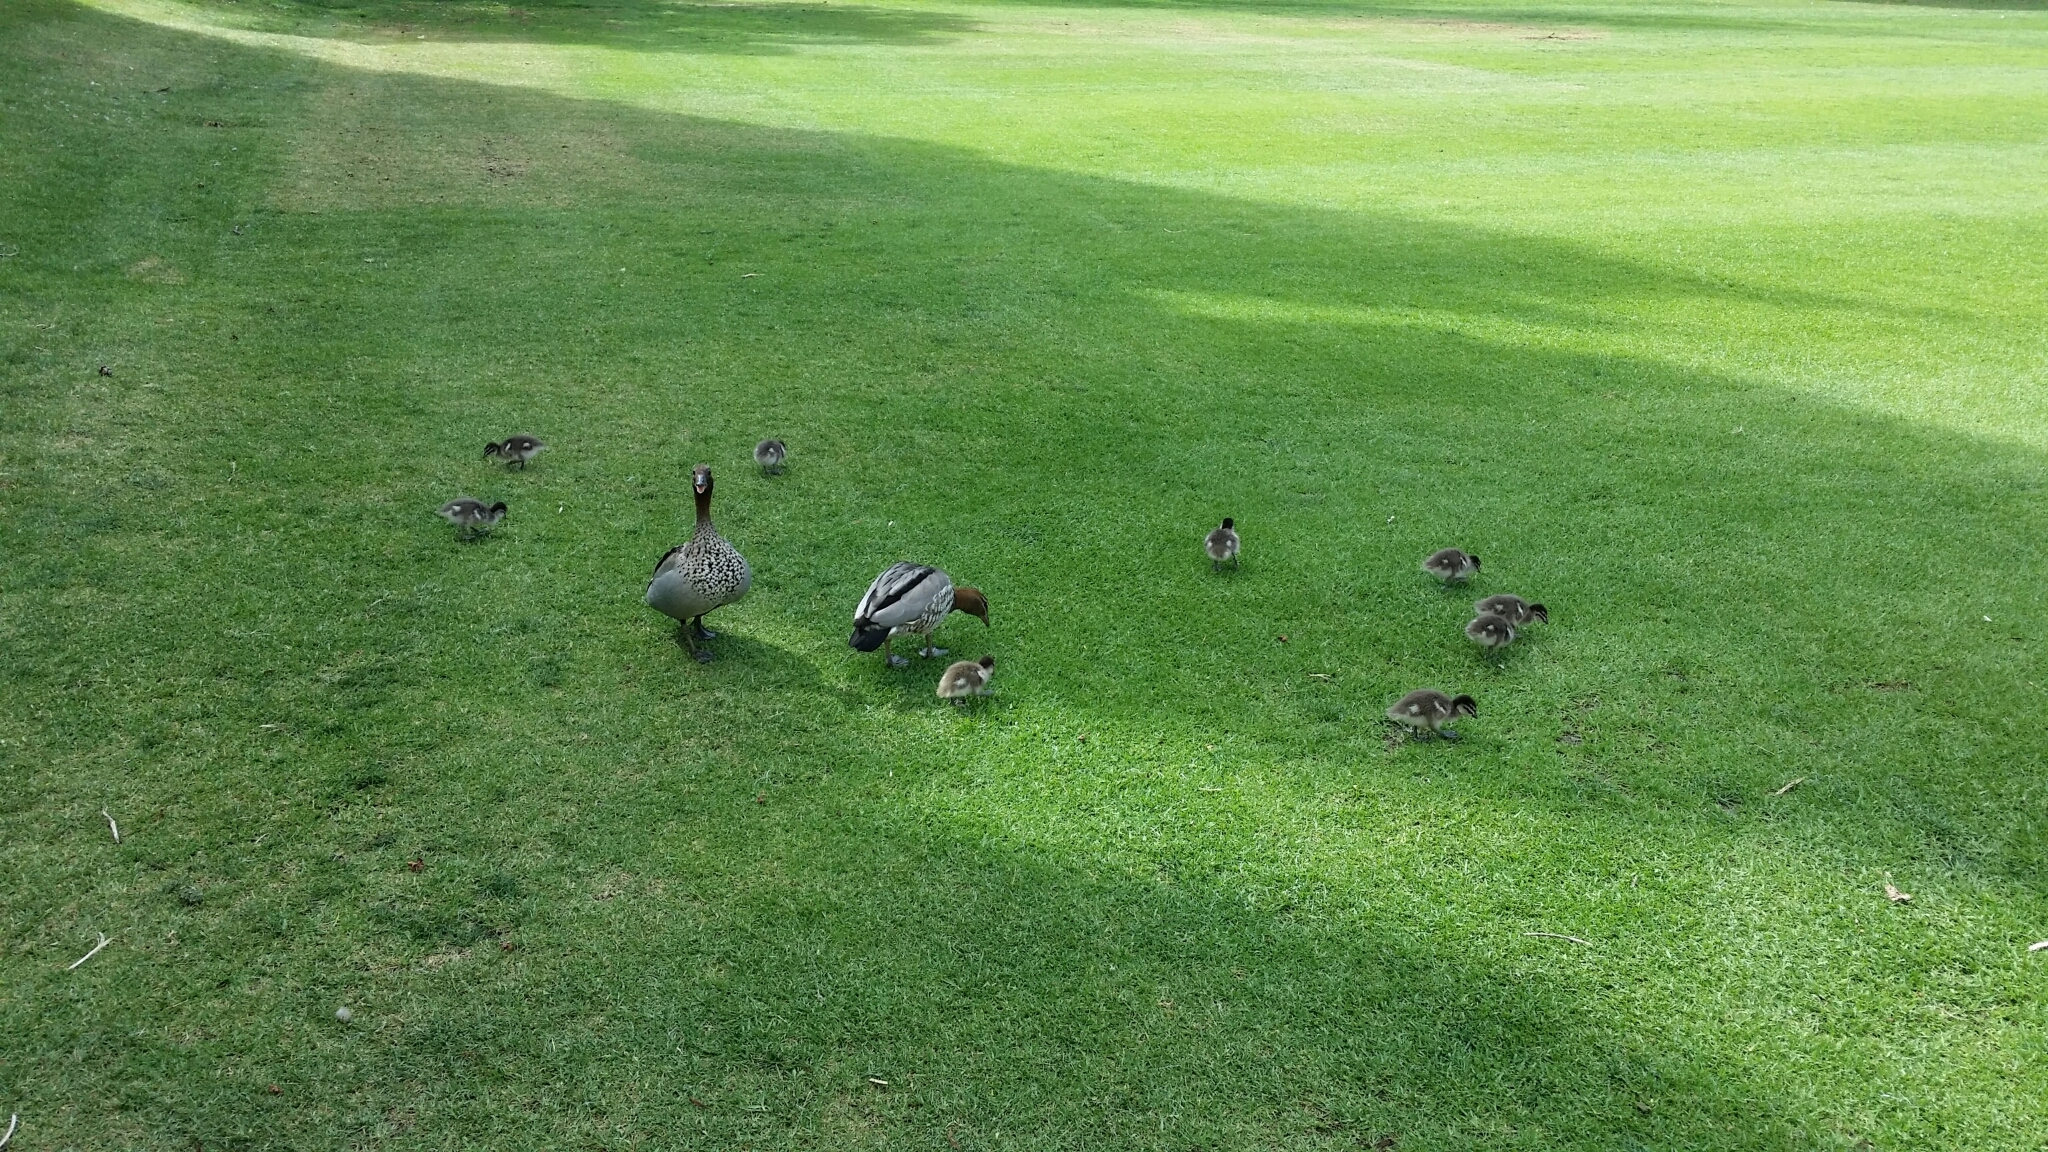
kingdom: Animalia
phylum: Chordata
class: Aves
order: Anseriformes
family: Anatidae
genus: Chenonetta
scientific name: Chenonetta jubata
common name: Maned duck
